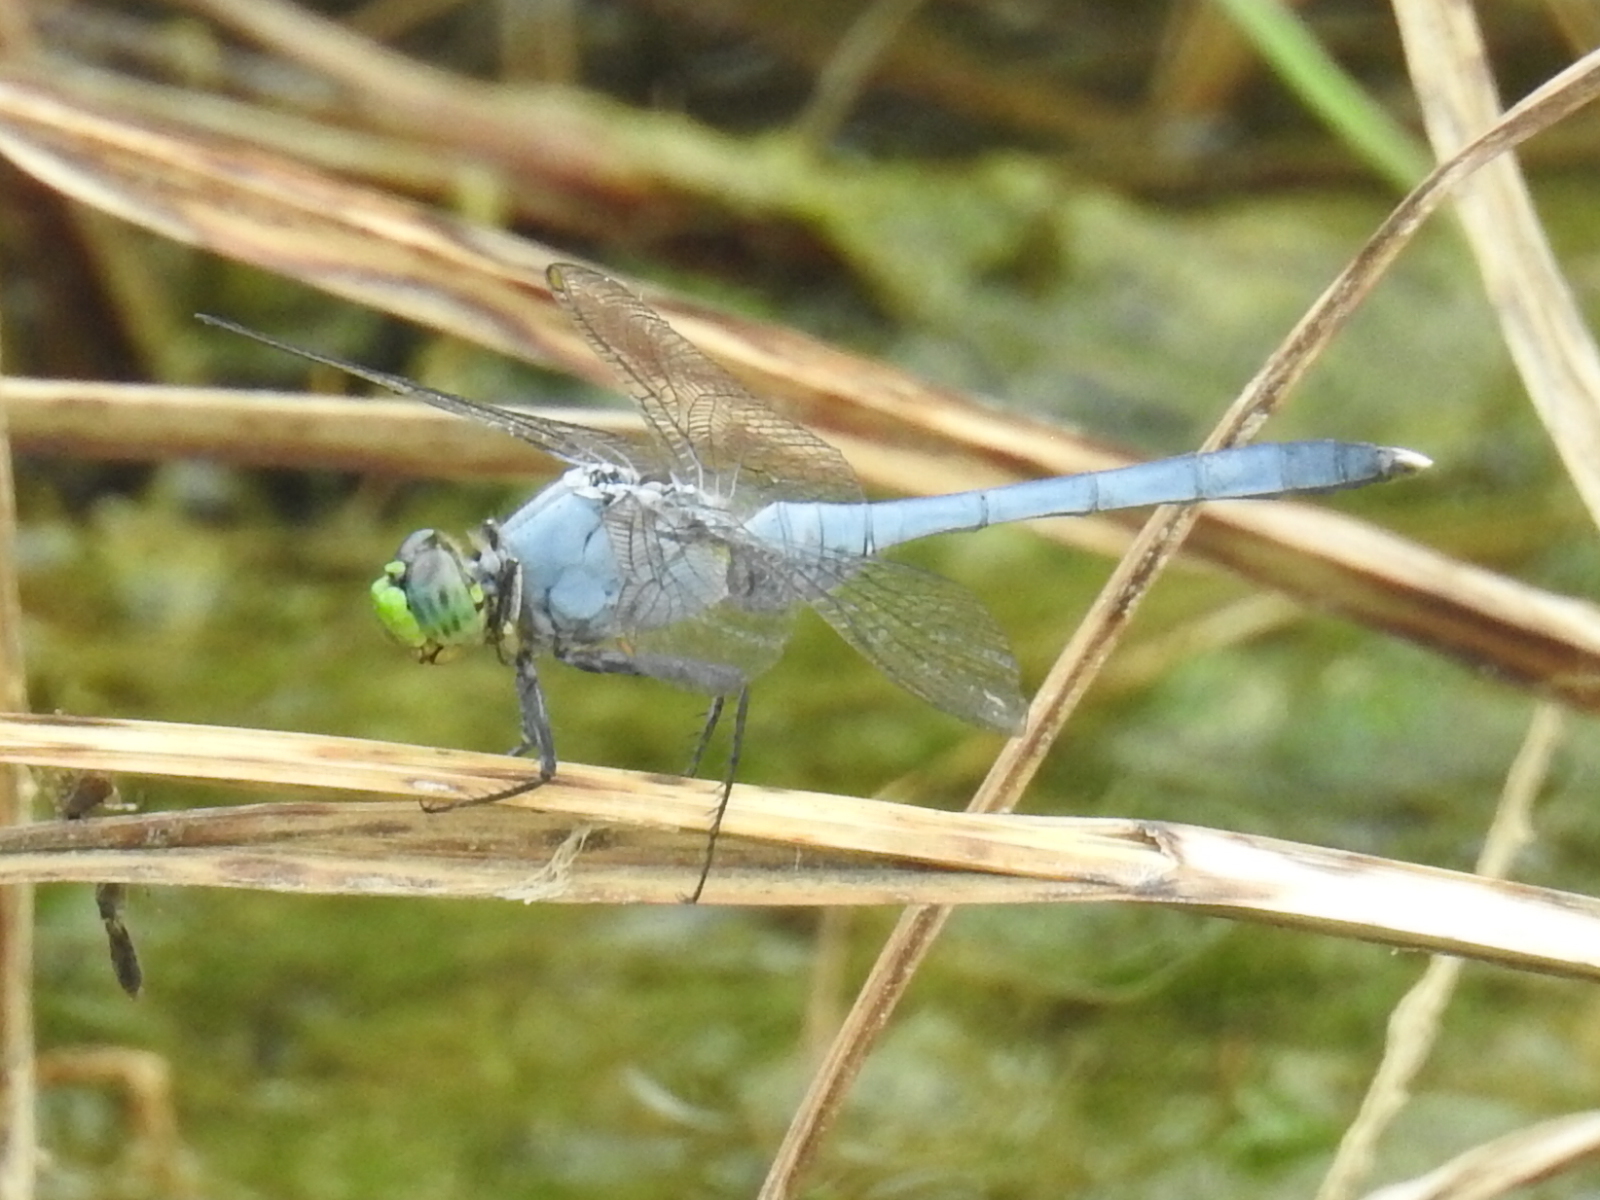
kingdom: Animalia
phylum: Arthropoda
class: Insecta
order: Odonata
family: Libellulidae
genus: Erythemis
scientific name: Erythemis simplicicollis
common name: Eastern pondhawk
